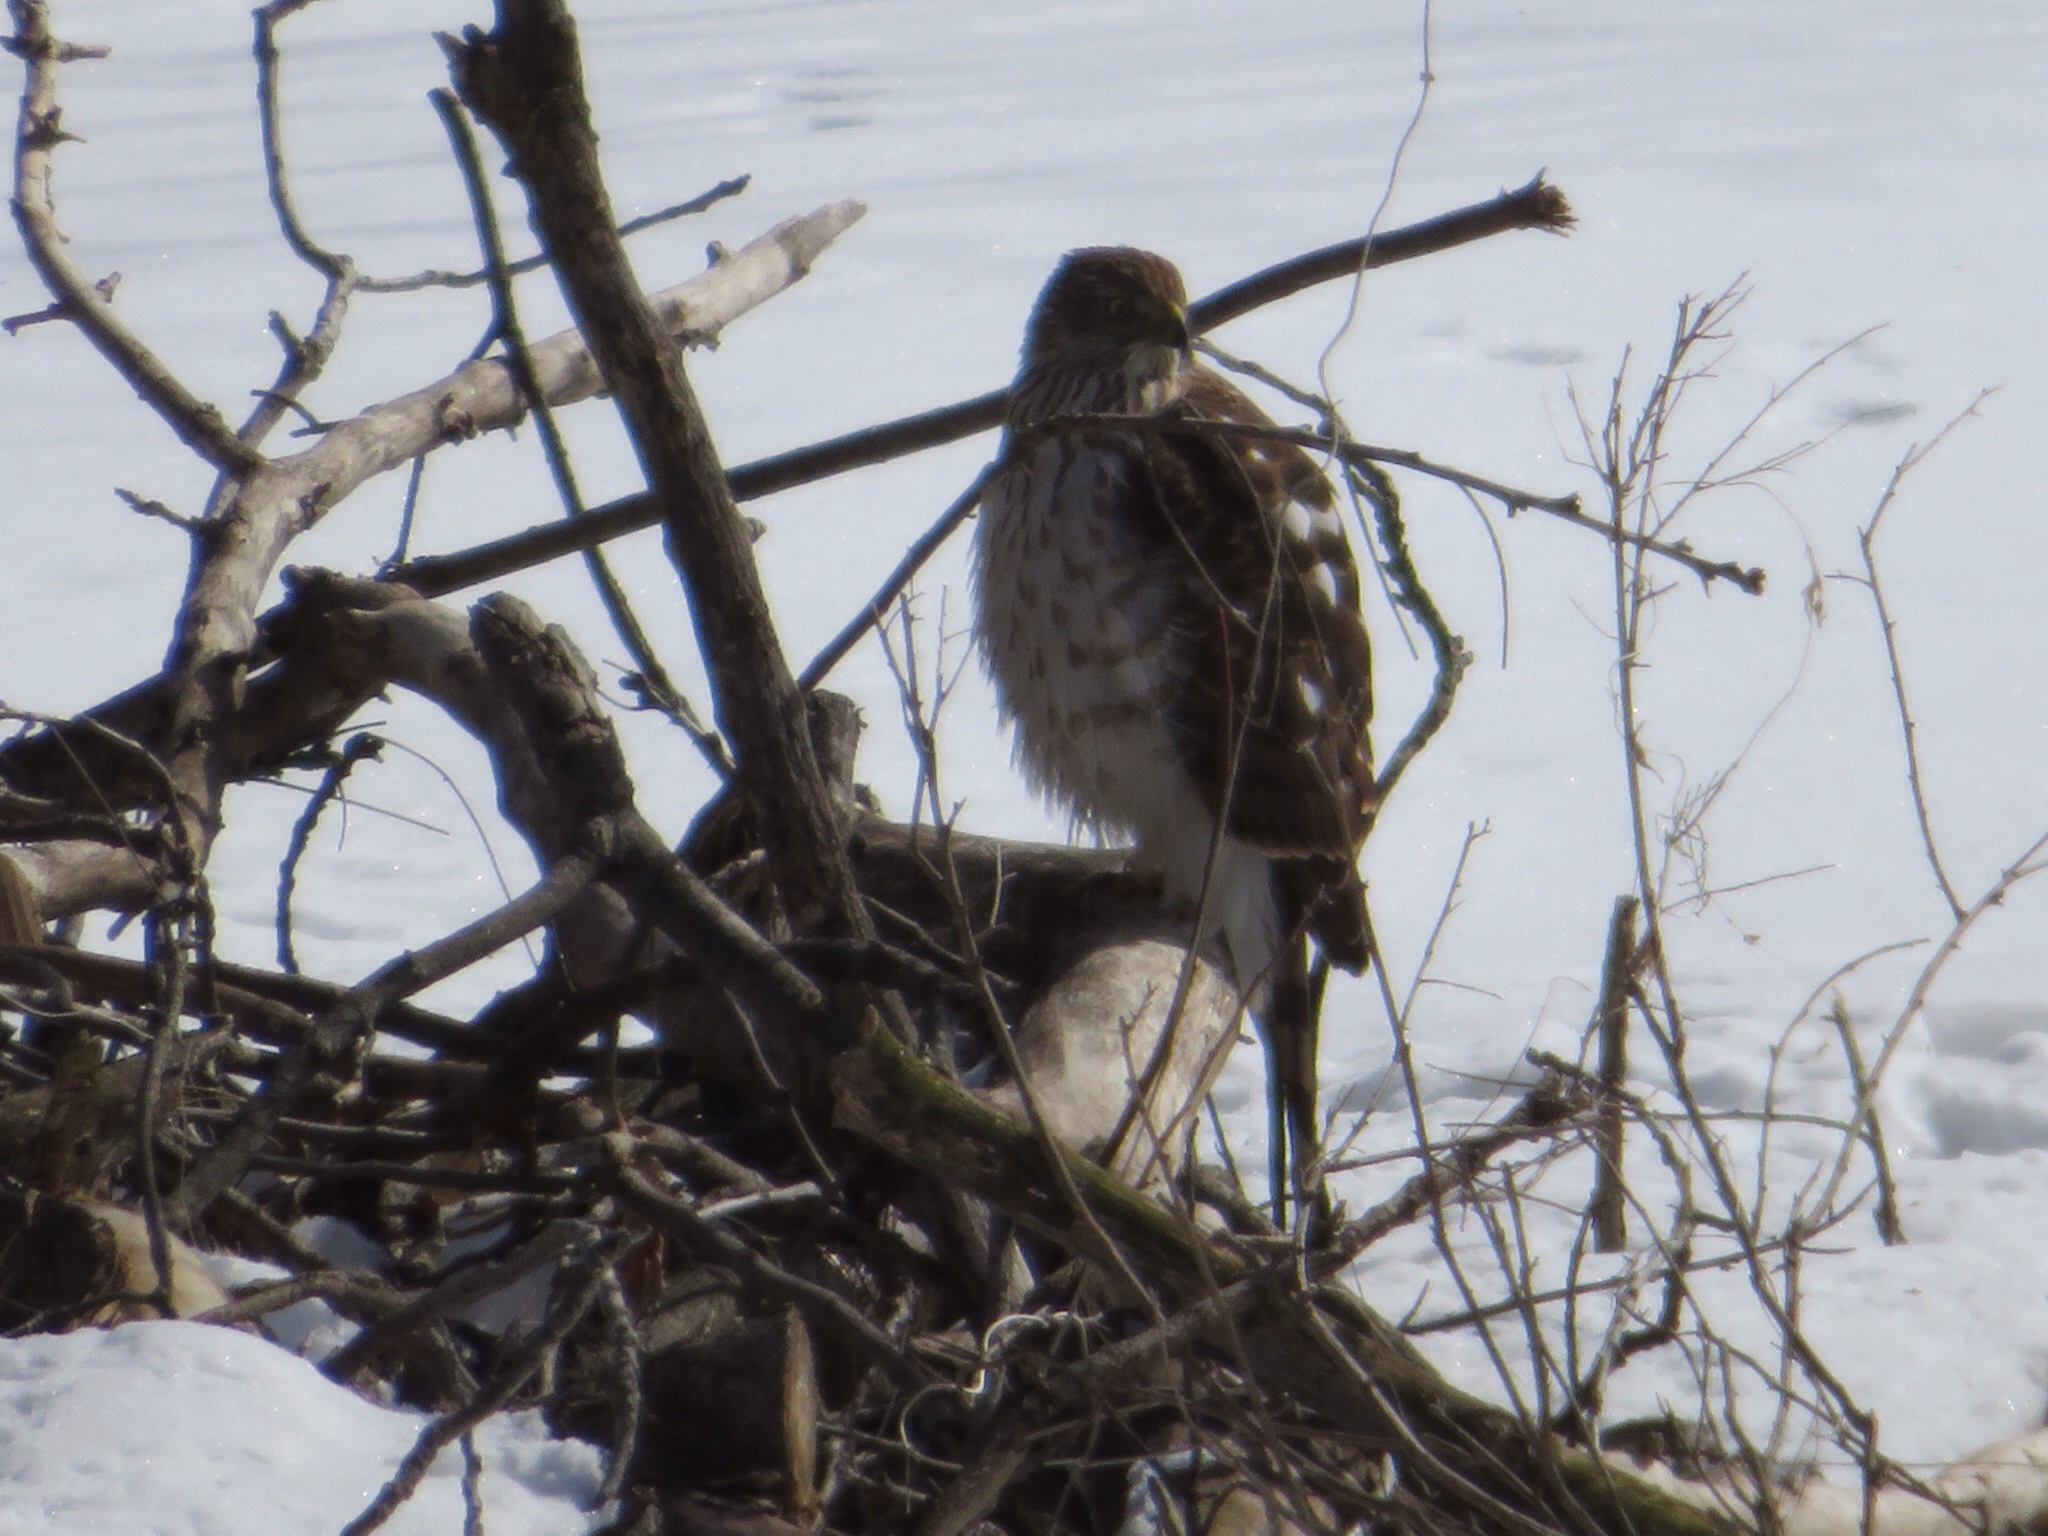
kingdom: Animalia
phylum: Chordata
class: Aves
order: Accipitriformes
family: Accipitridae
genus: Accipiter
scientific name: Accipiter cooperii
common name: Cooper's hawk
